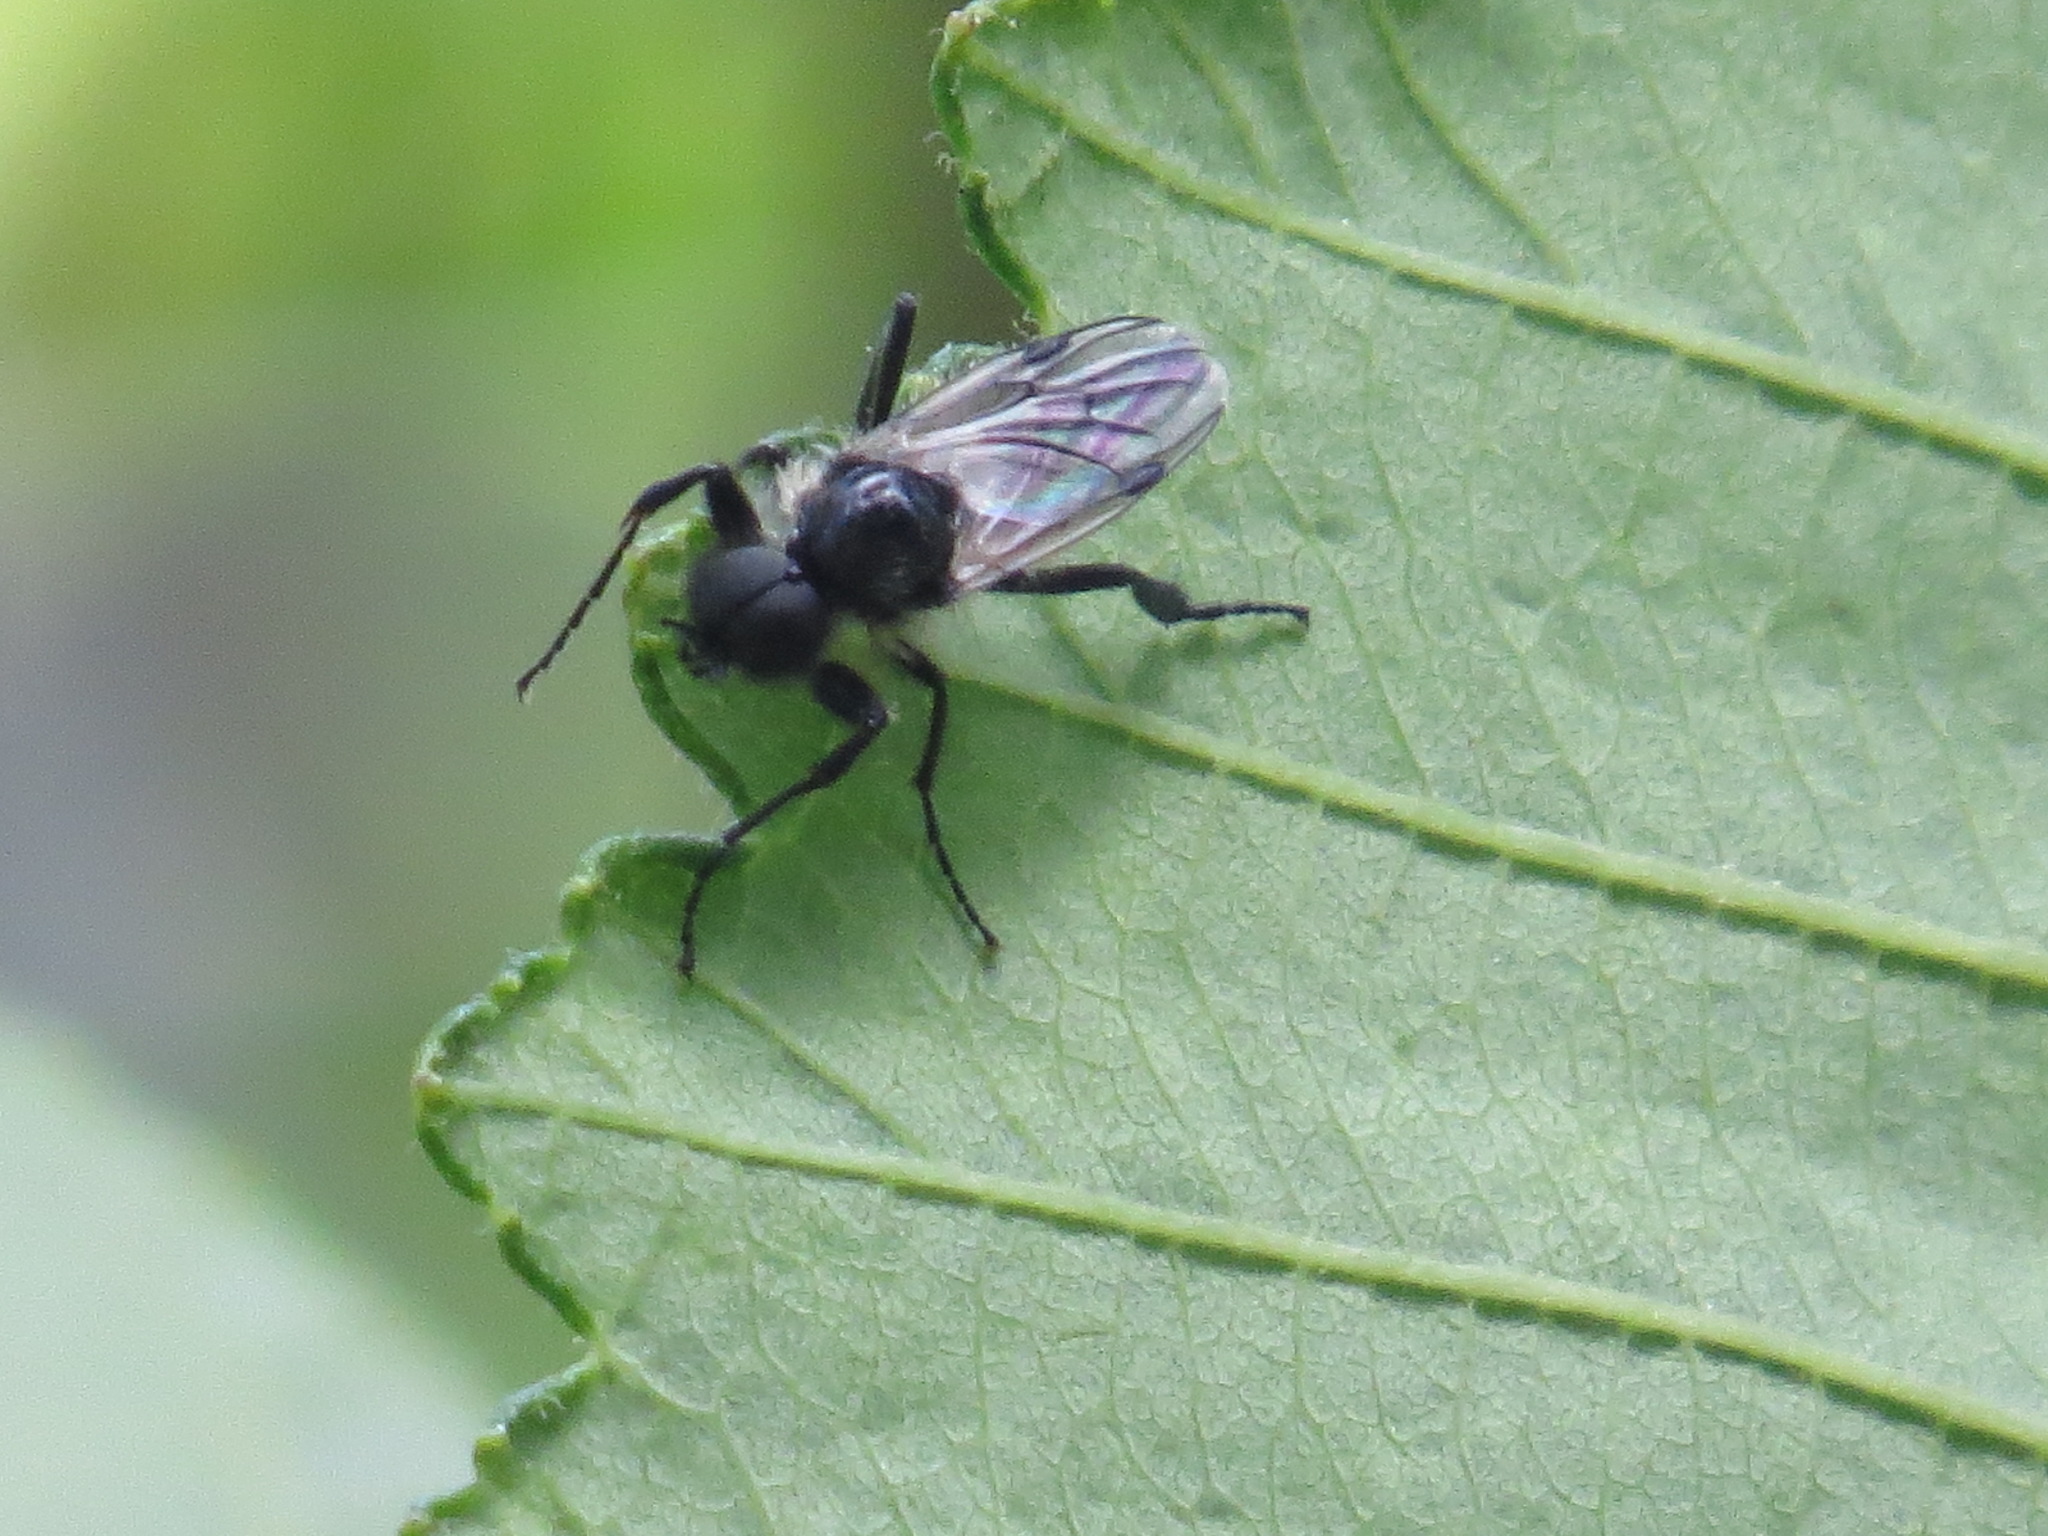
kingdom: Animalia
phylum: Arthropoda
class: Insecta
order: Diptera
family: Bibionidae
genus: Bibio
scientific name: Bibio albipennis
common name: White-winged march fly
